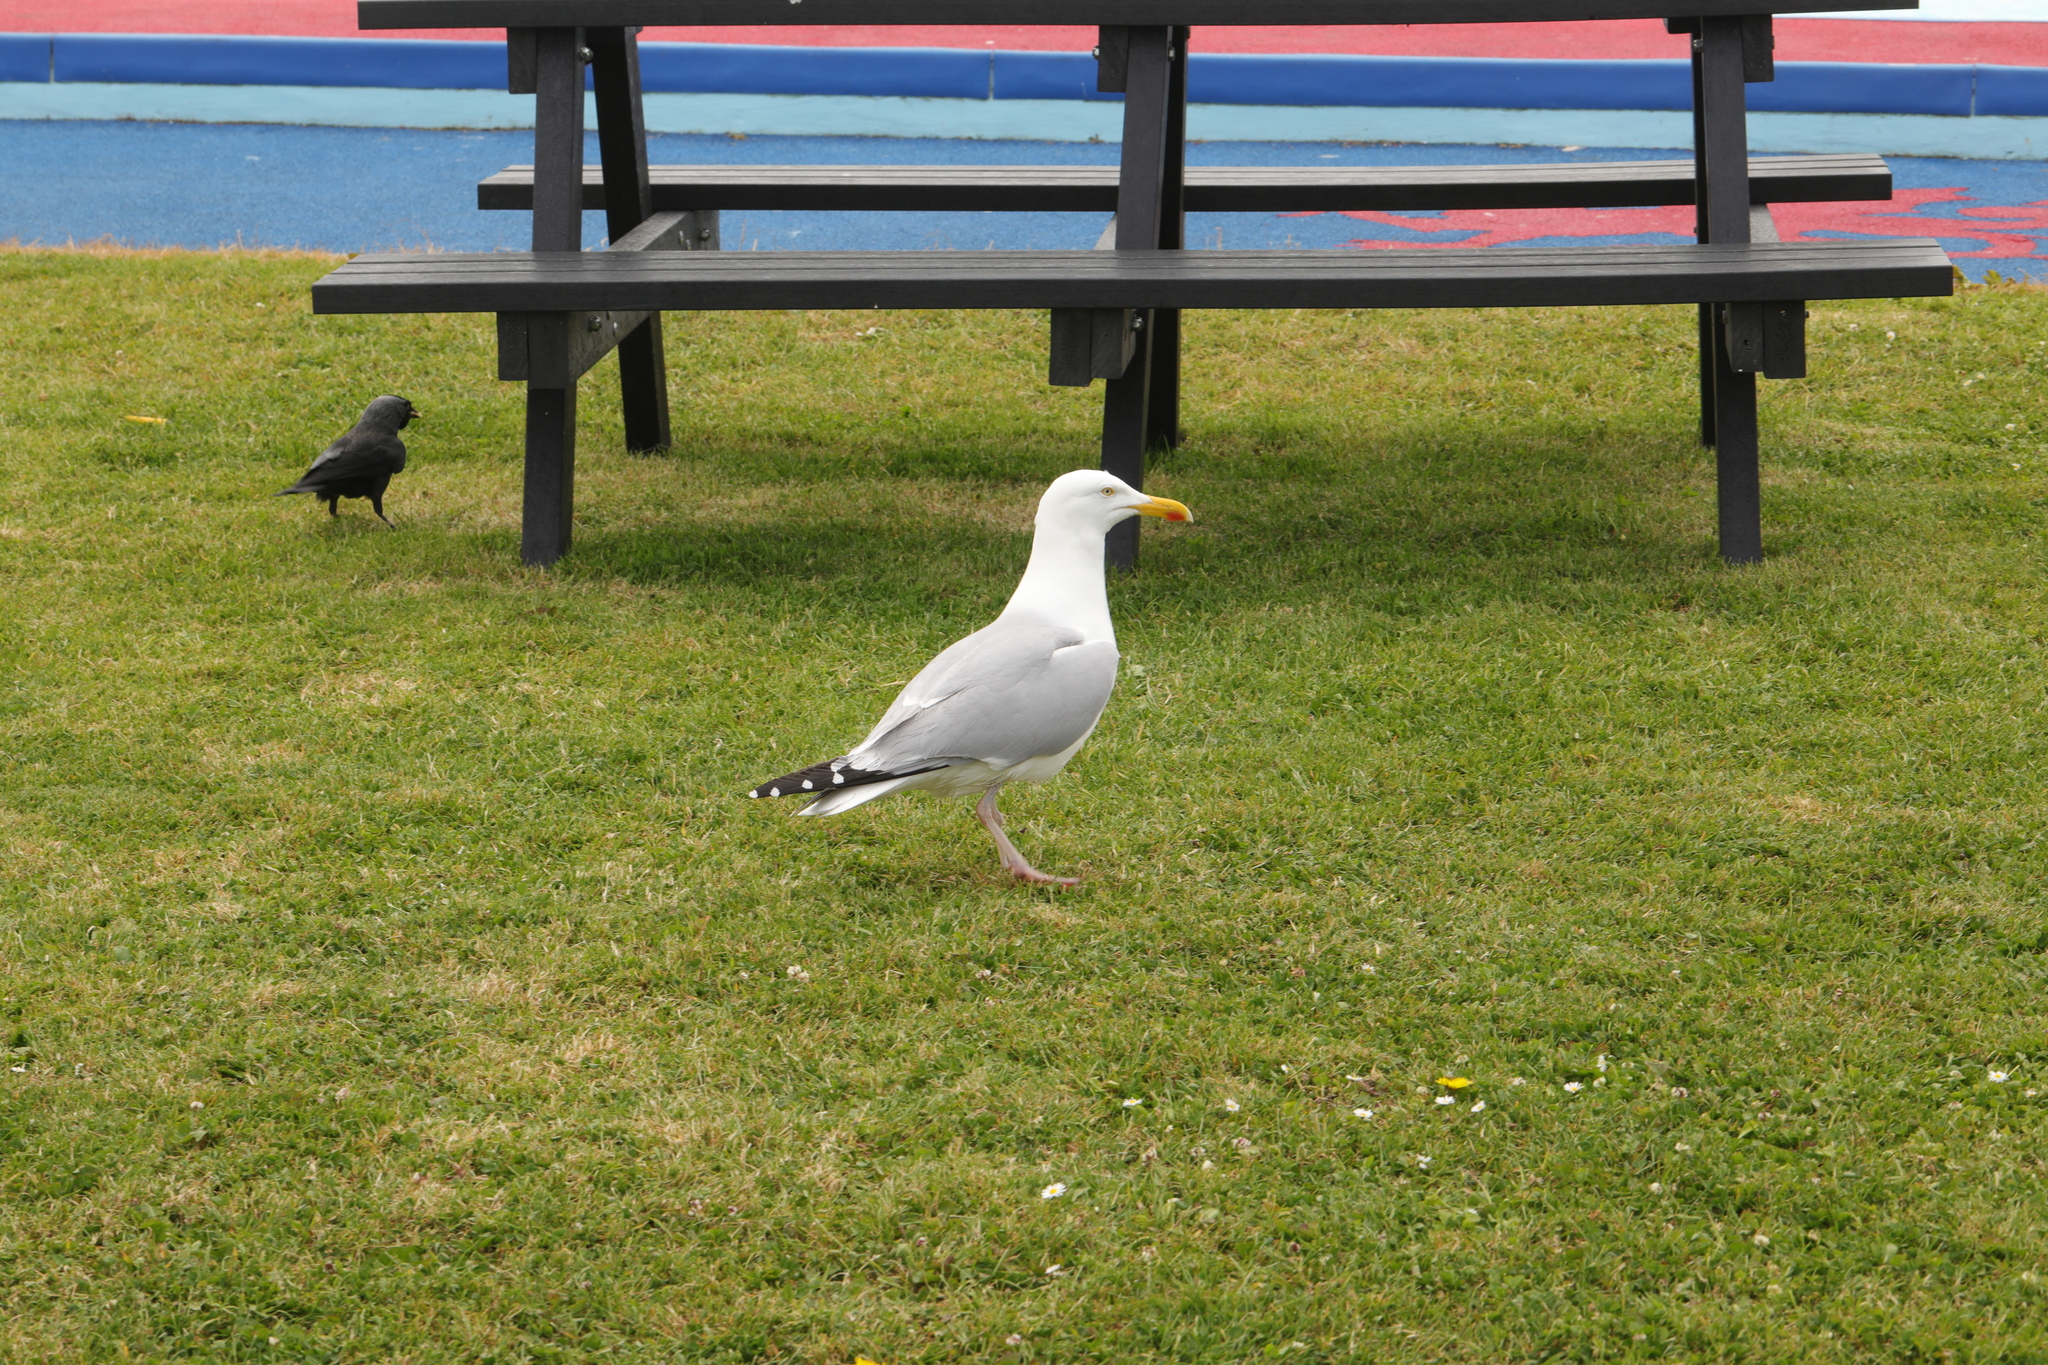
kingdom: Animalia
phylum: Chordata
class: Aves
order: Charadriiformes
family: Laridae
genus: Larus
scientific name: Larus argentatus
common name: Herring gull
